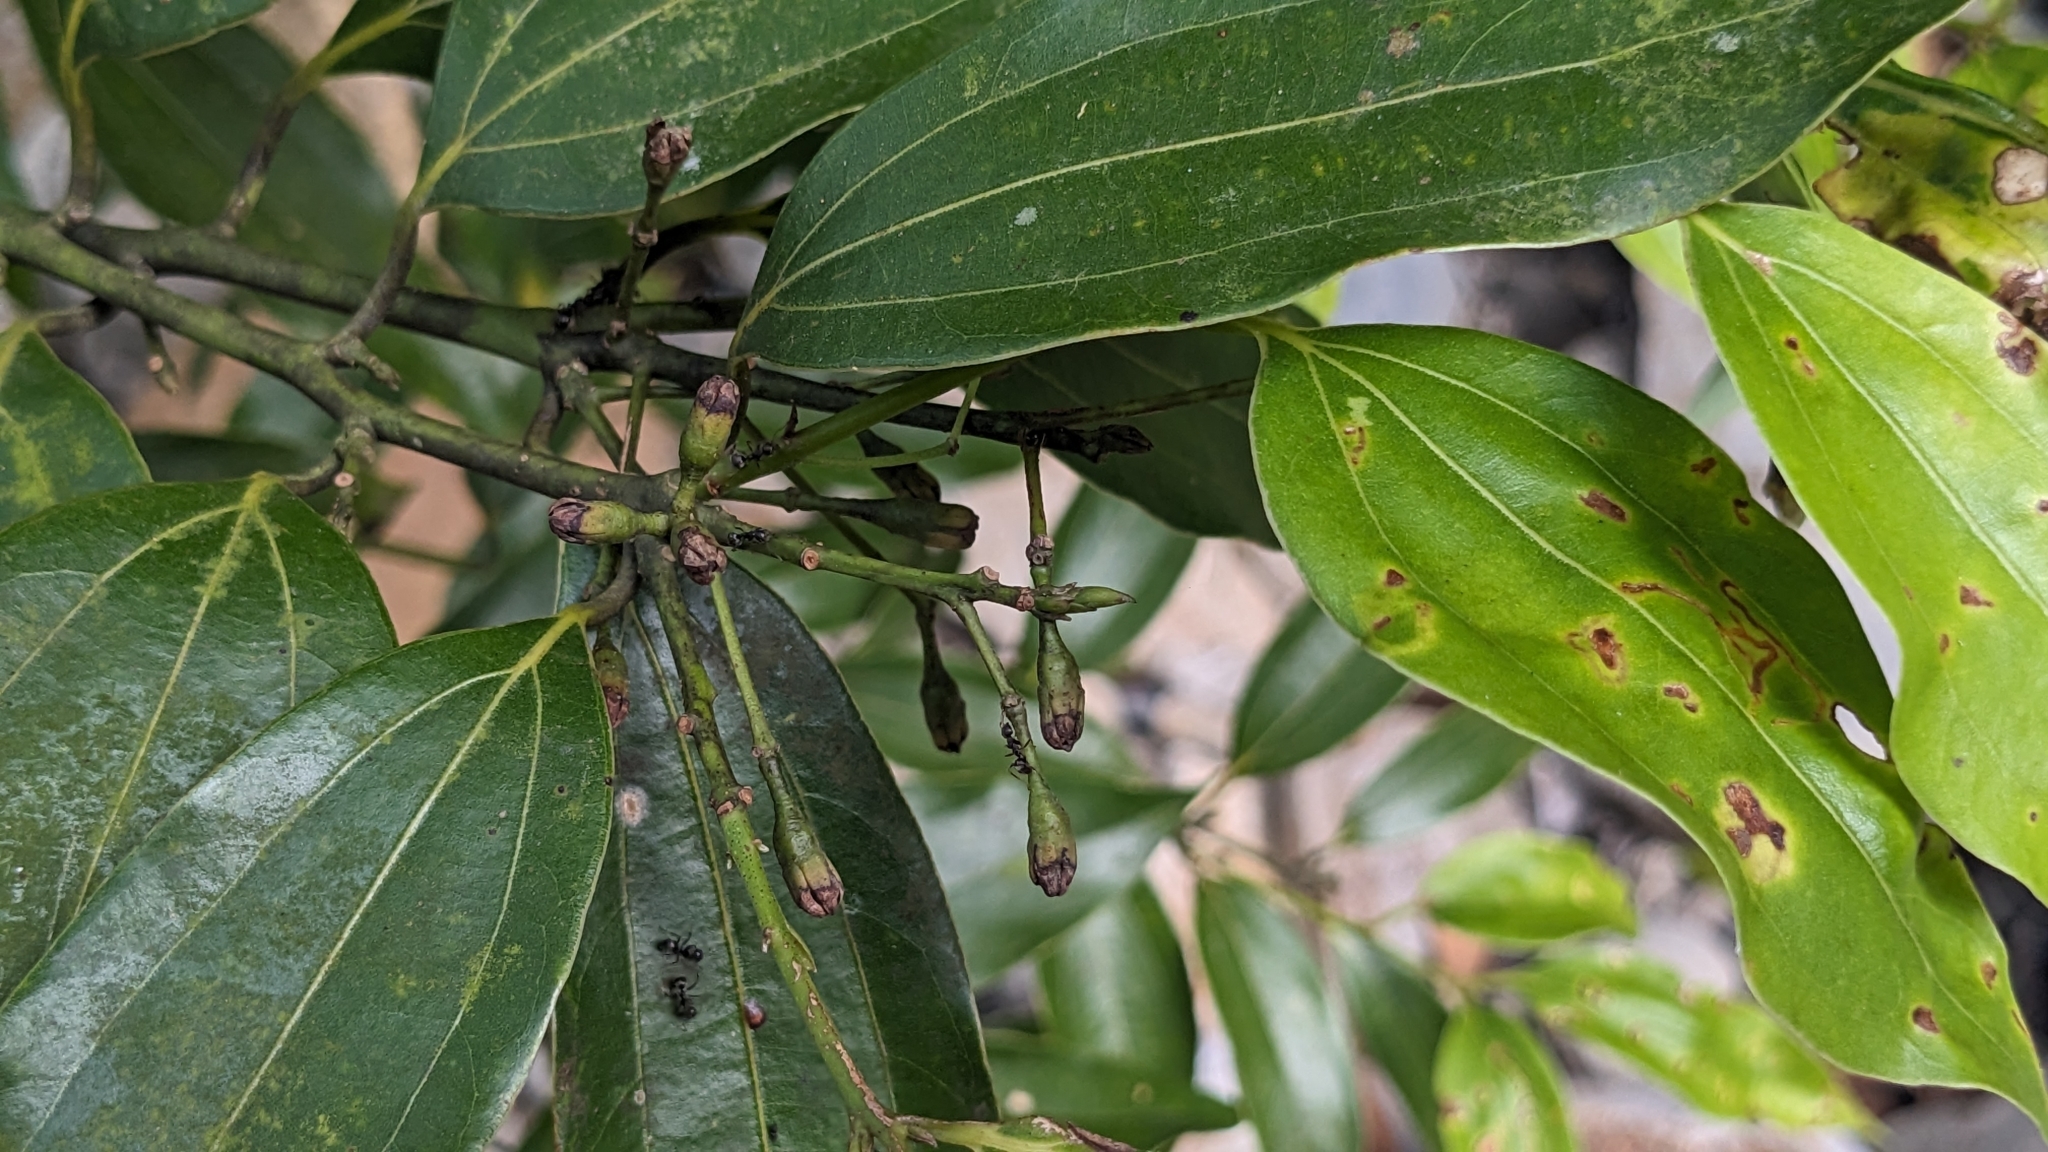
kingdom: Plantae
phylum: Tracheophyta
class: Magnoliopsida
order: Laurales
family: Lauraceae
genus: Cinnamomum
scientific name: Cinnamomum chekiangense
